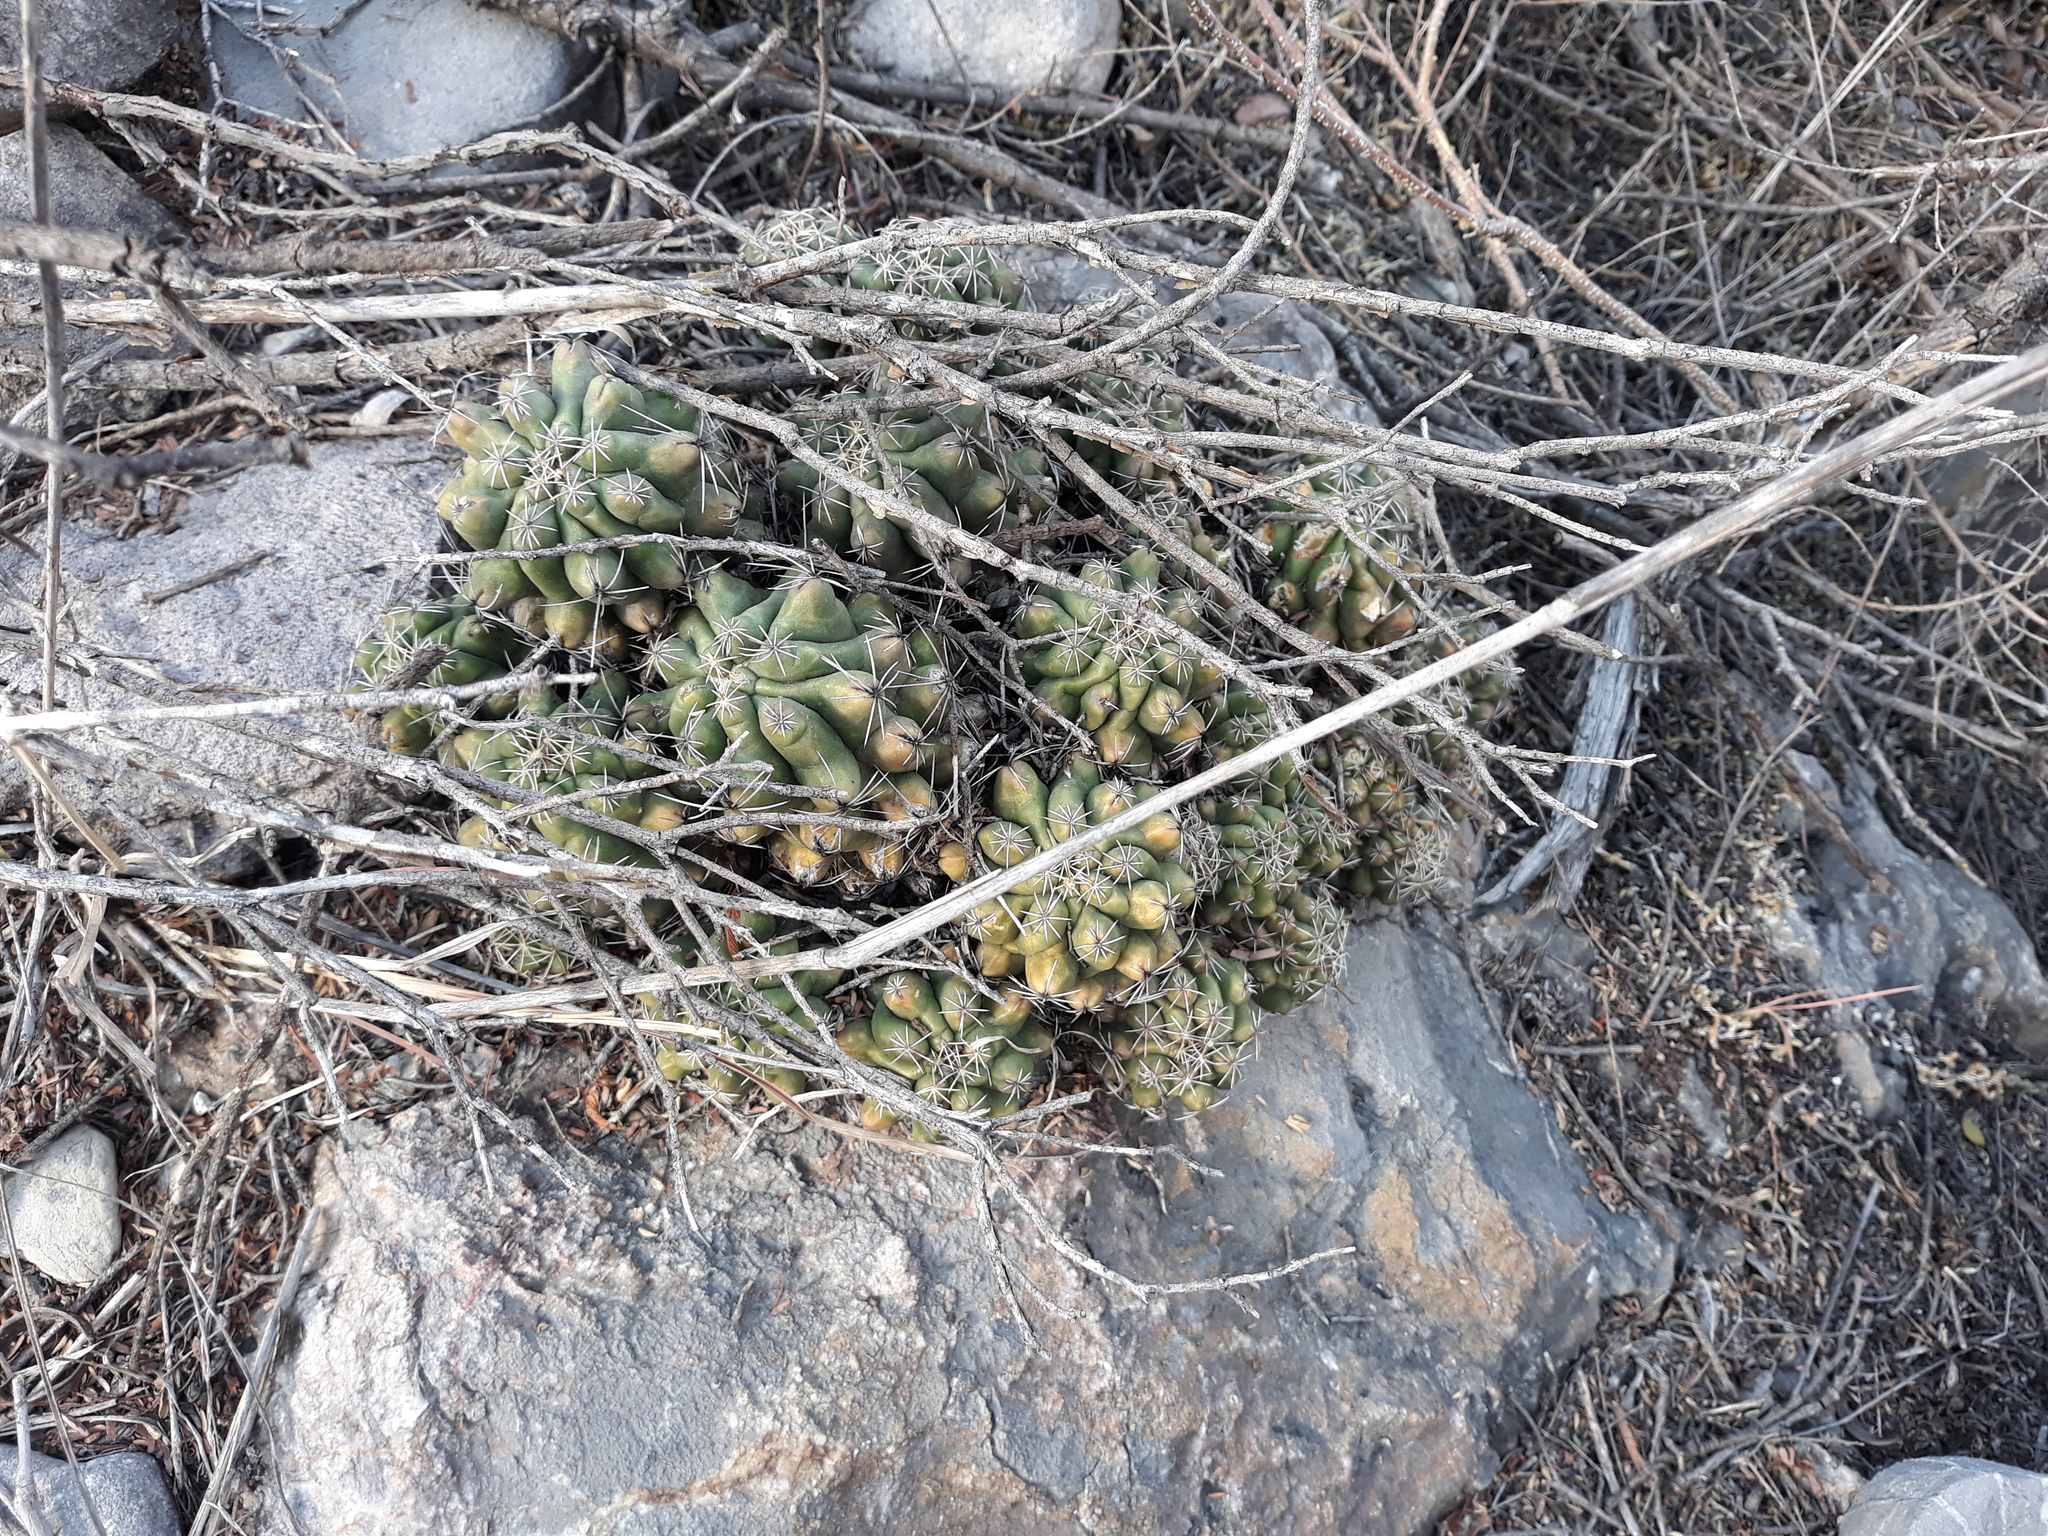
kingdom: Plantae
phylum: Tracheophyta
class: Magnoliopsida
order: Caryophyllales
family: Cactaceae
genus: Thelocactus
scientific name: Thelocactus leucacanthus
